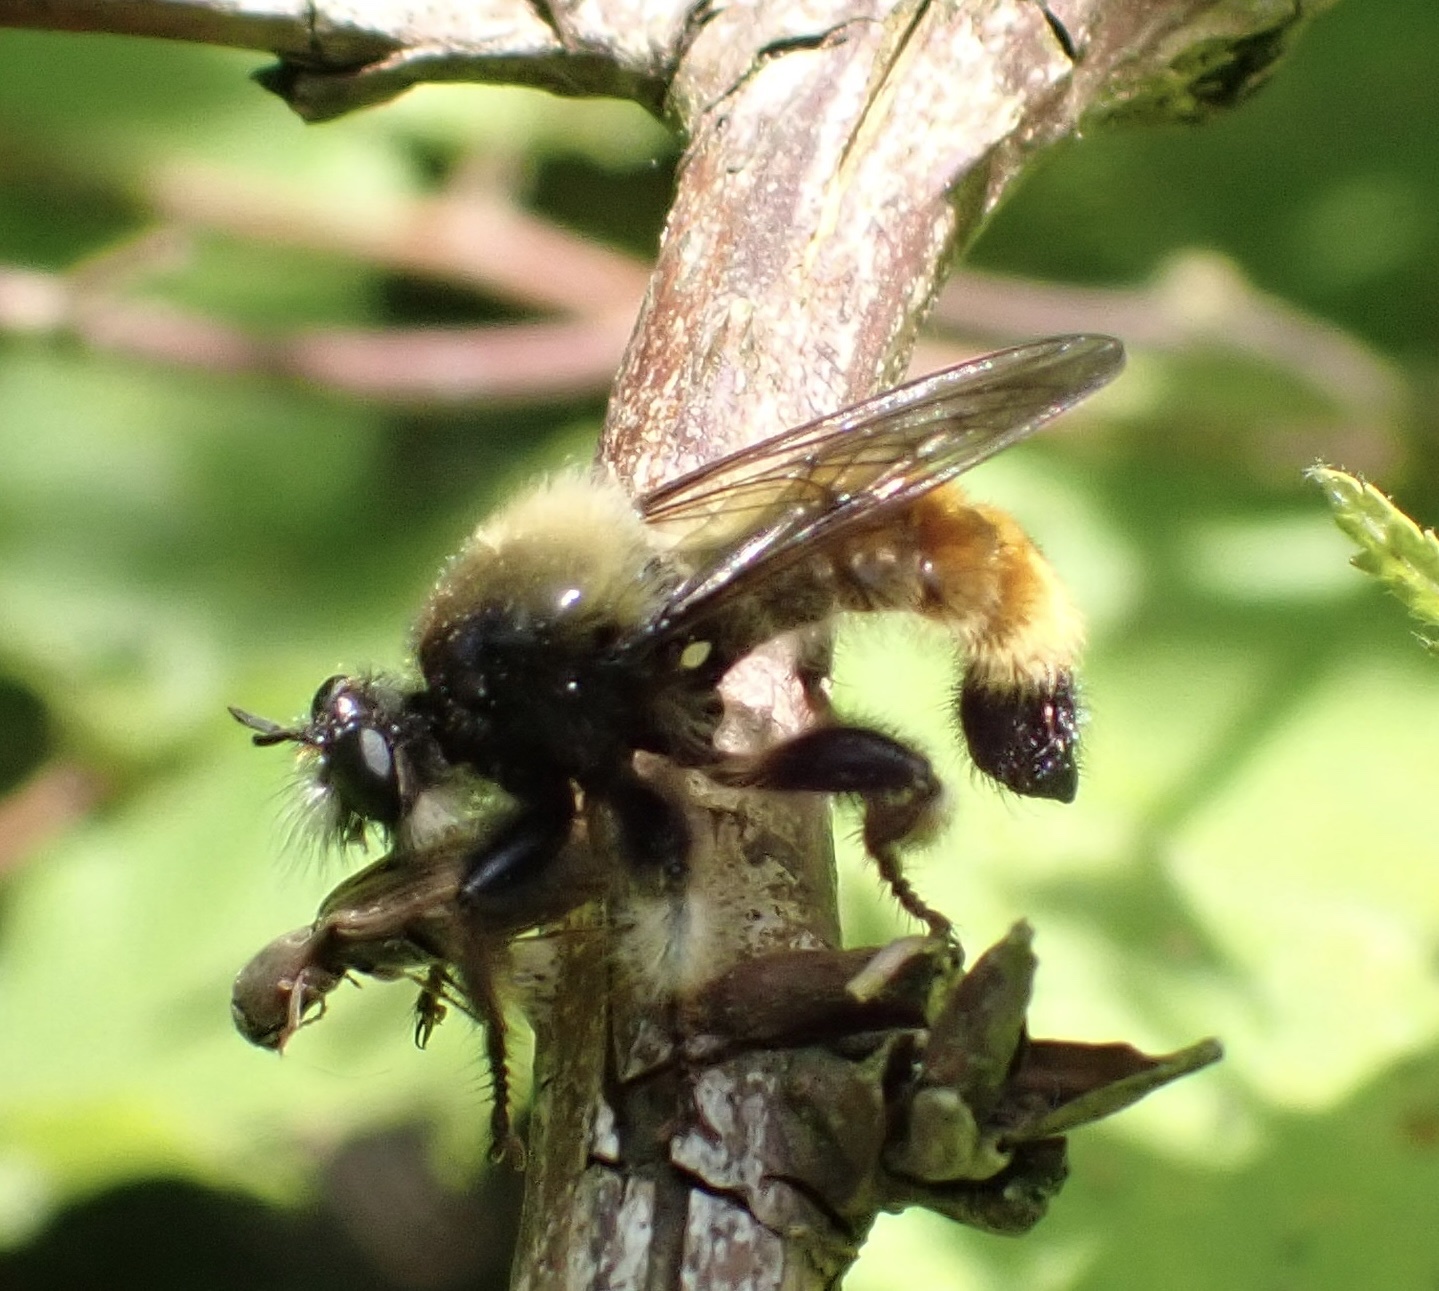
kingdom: Animalia
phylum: Arthropoda
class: Insecta
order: Diptera
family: Asilidae
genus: Laphria
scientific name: Laphria flava
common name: Bumblebee robberfly
